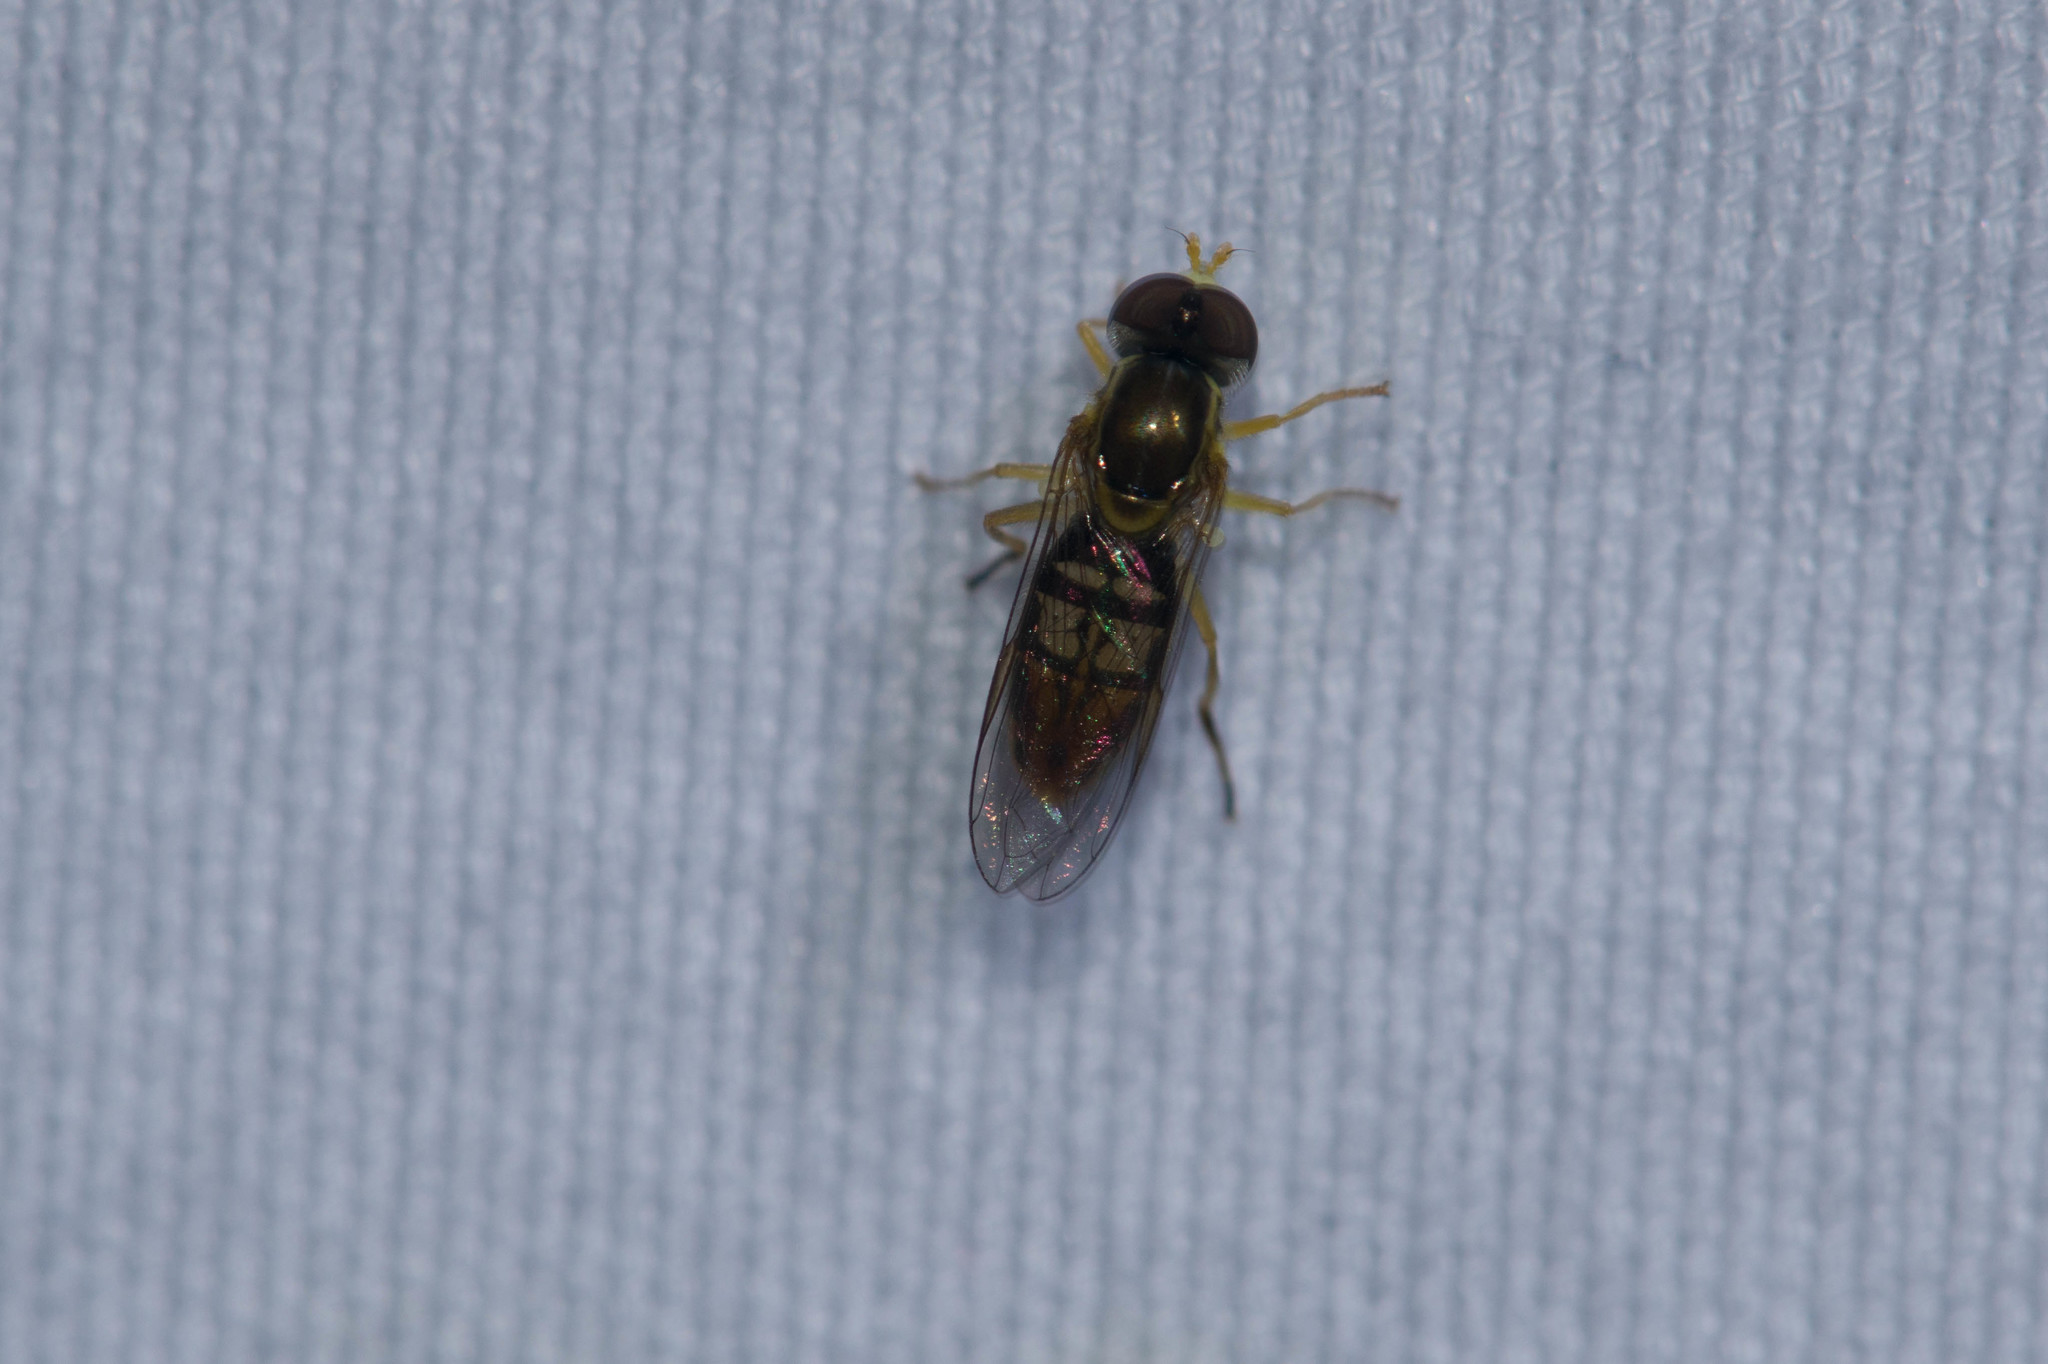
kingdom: Animalia
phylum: Arthropoda
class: Insecta
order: Diptera
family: Syrphidae
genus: Toxomerus
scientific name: Toxomerus marginatus
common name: Syrphid fly
